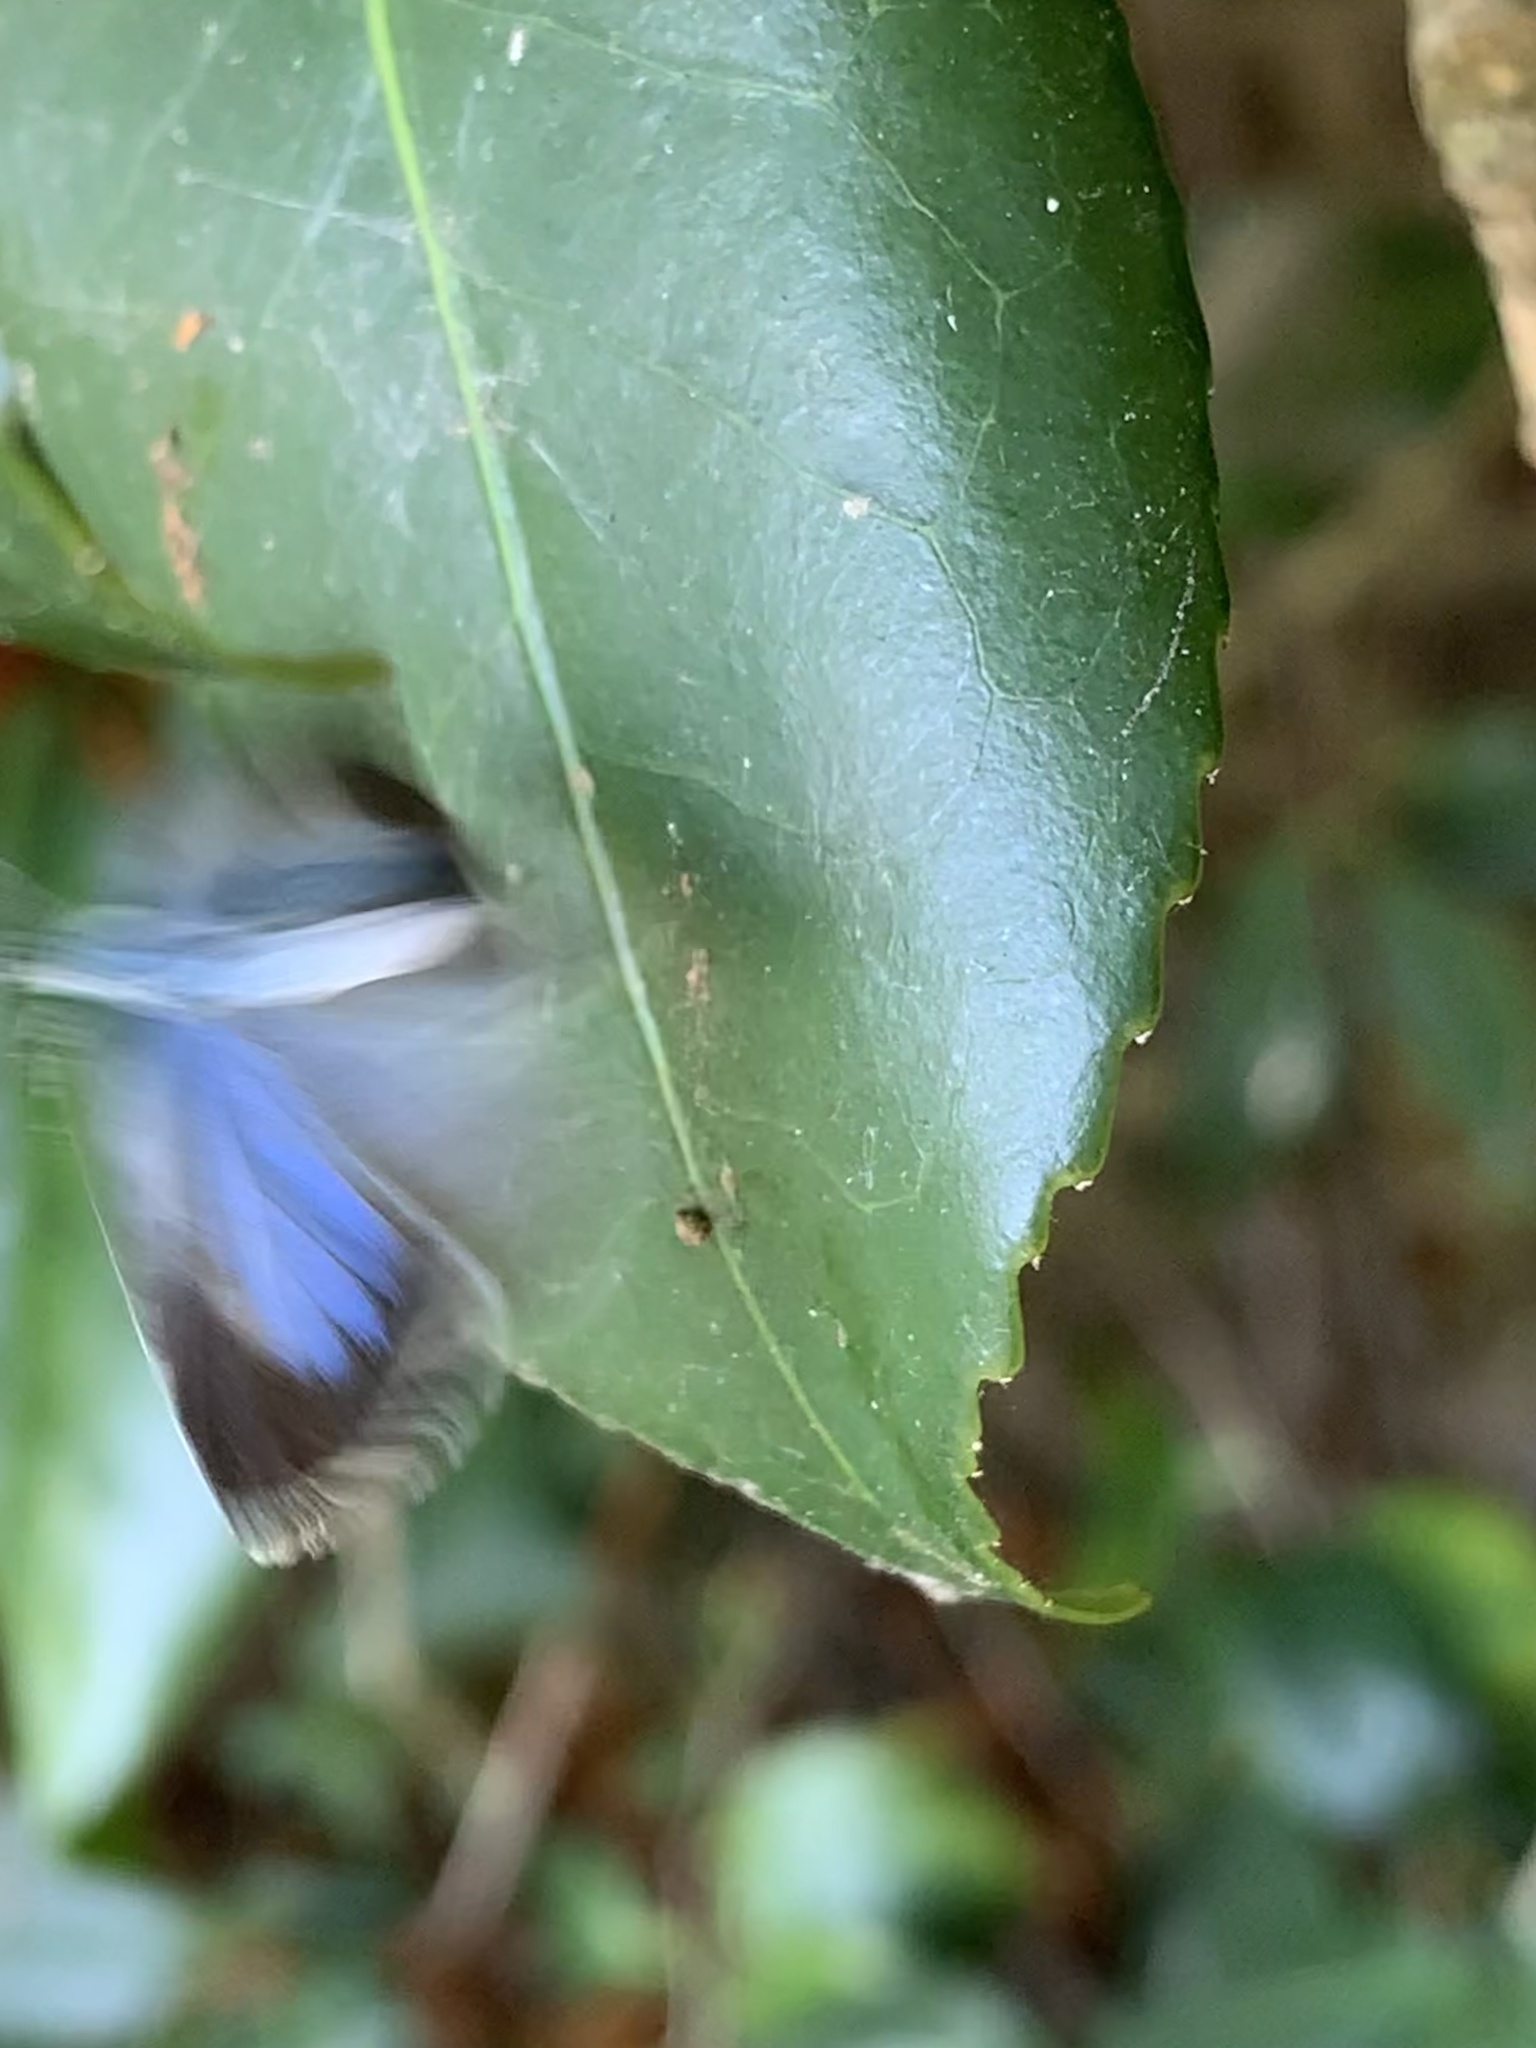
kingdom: Animalia
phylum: Arthropoda
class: Insecta
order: Lepidoptera
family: Lycaenidae
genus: Celastrina
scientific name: Celastrina argiolus
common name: Holly blue
